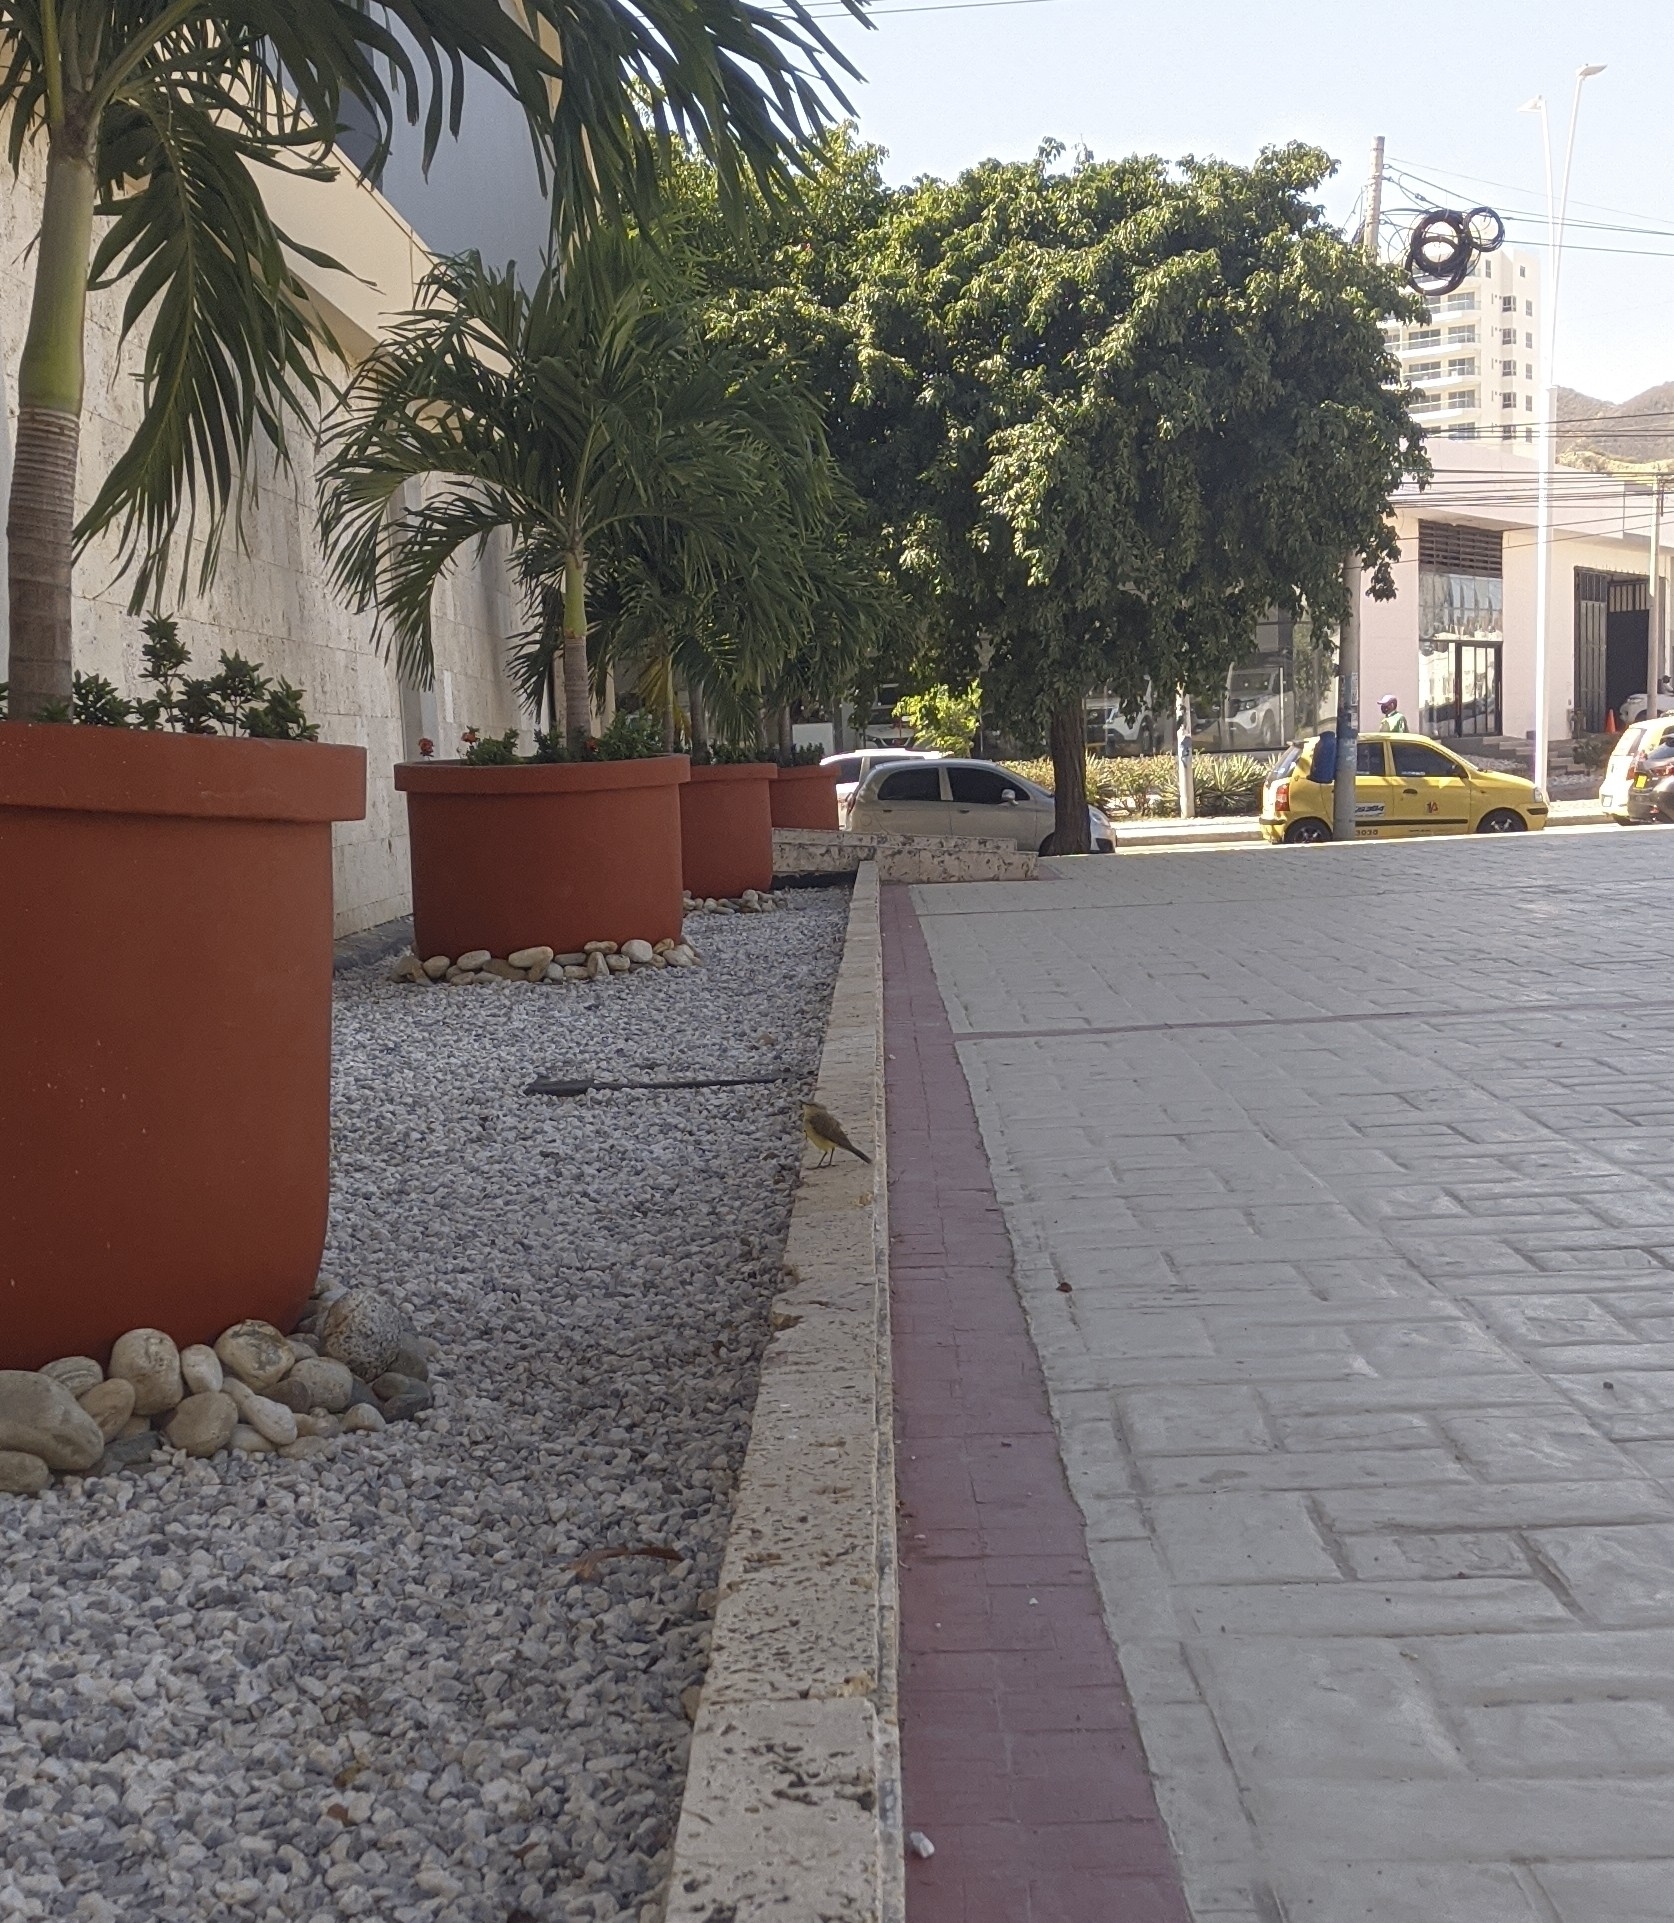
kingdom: Animalia
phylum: Chordata
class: Aves
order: Passeriformes
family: Tyrannidae
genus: Machetornis
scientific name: Machetornis rixosa
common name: Cattle tyrant
